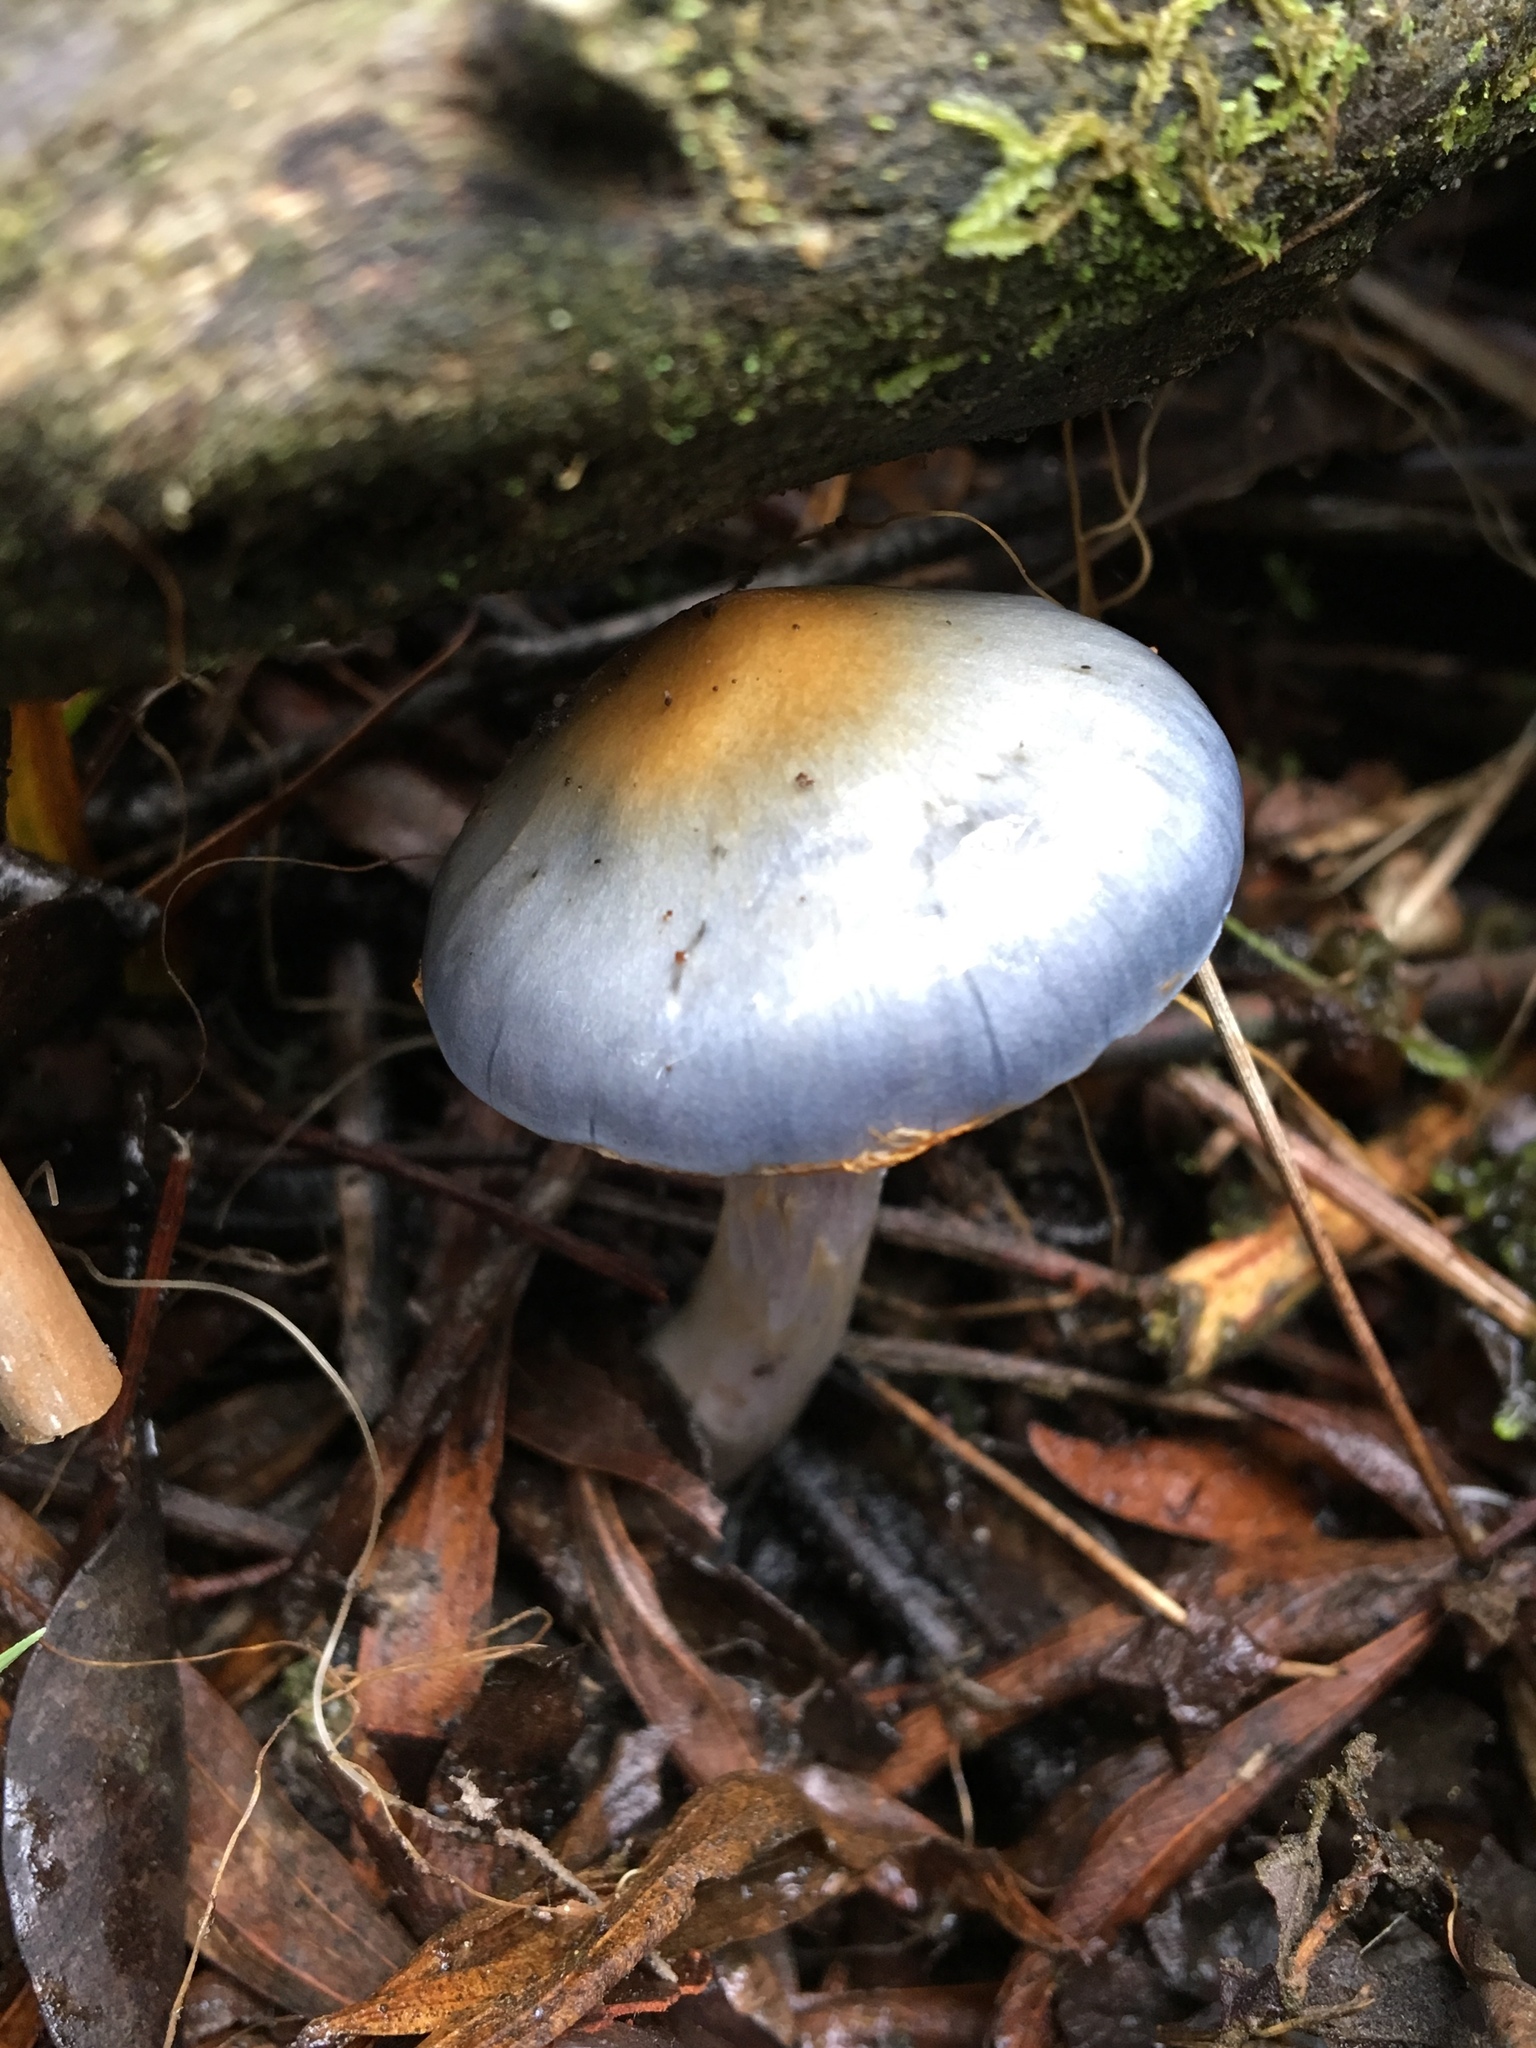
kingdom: Fungi
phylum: Basidiomycota
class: Agaricomycetes
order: Agaricales
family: Cortinariaceae
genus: Cortinarius
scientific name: Cortinarius rotundisporus
